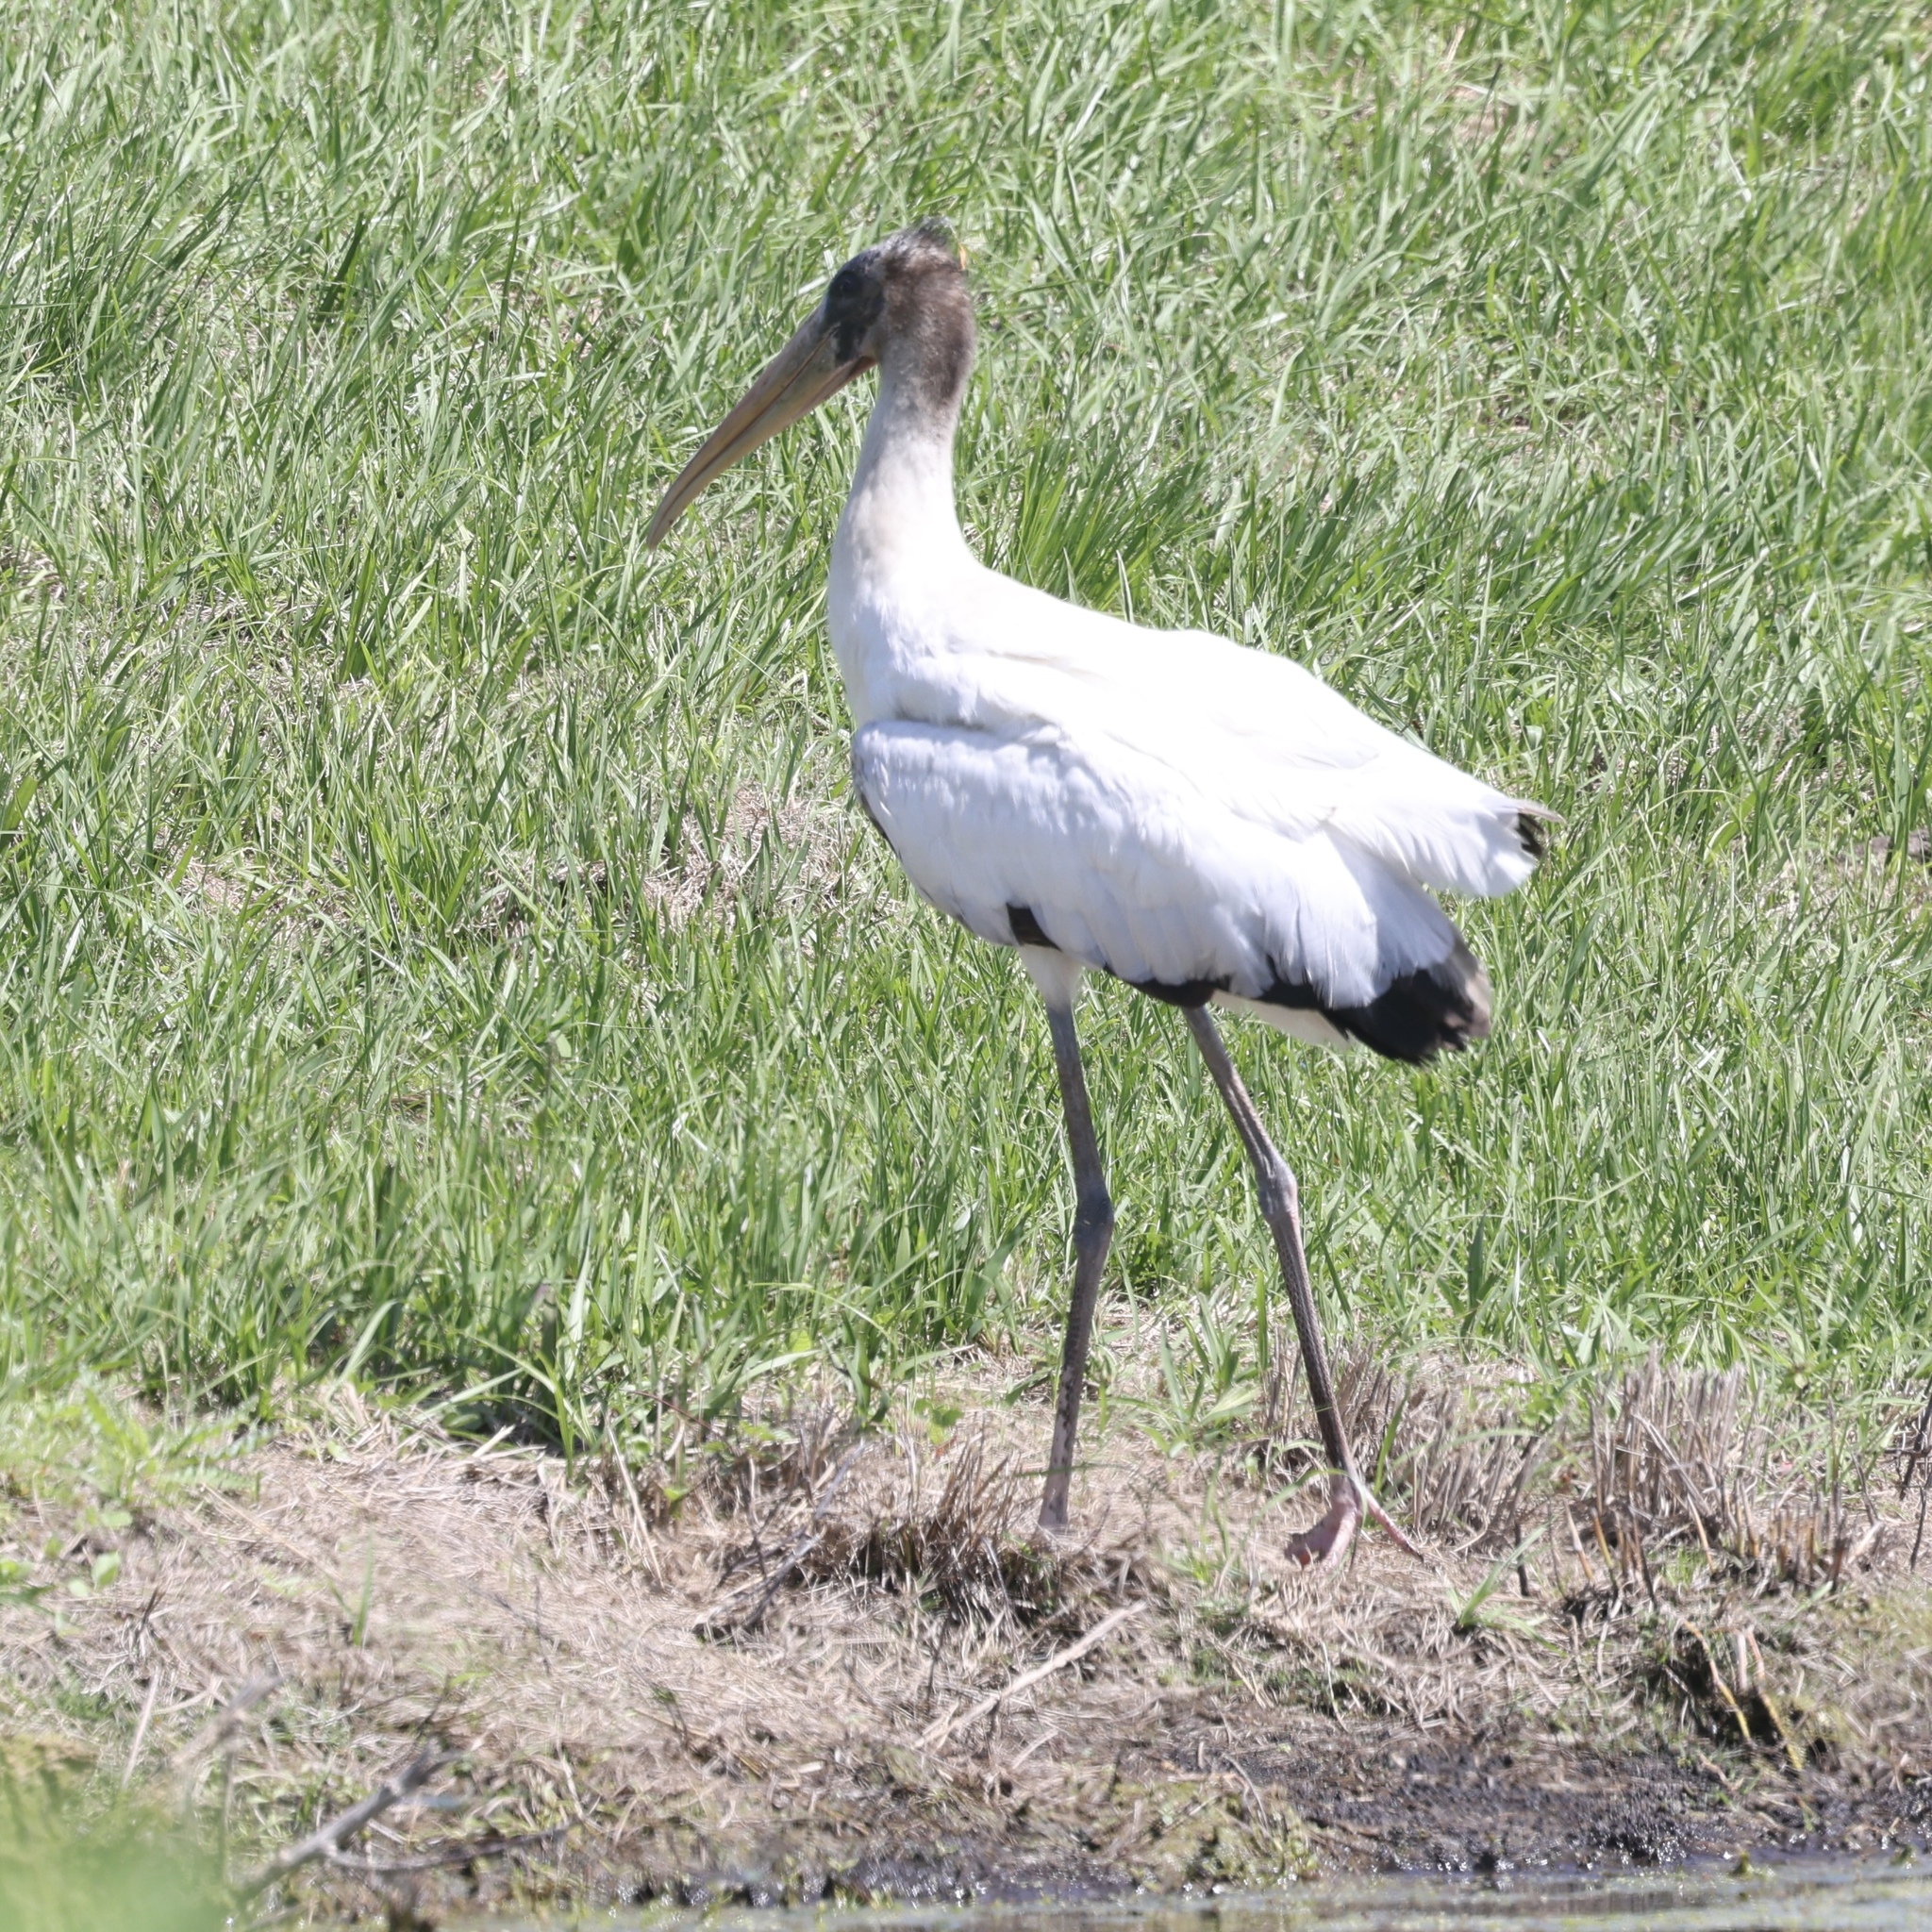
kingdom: Animalia
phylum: Chordata
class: Aves
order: Ciconiiformes
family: Ciconiidae
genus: Mycteria
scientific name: Mycteria americana
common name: Wood stork
